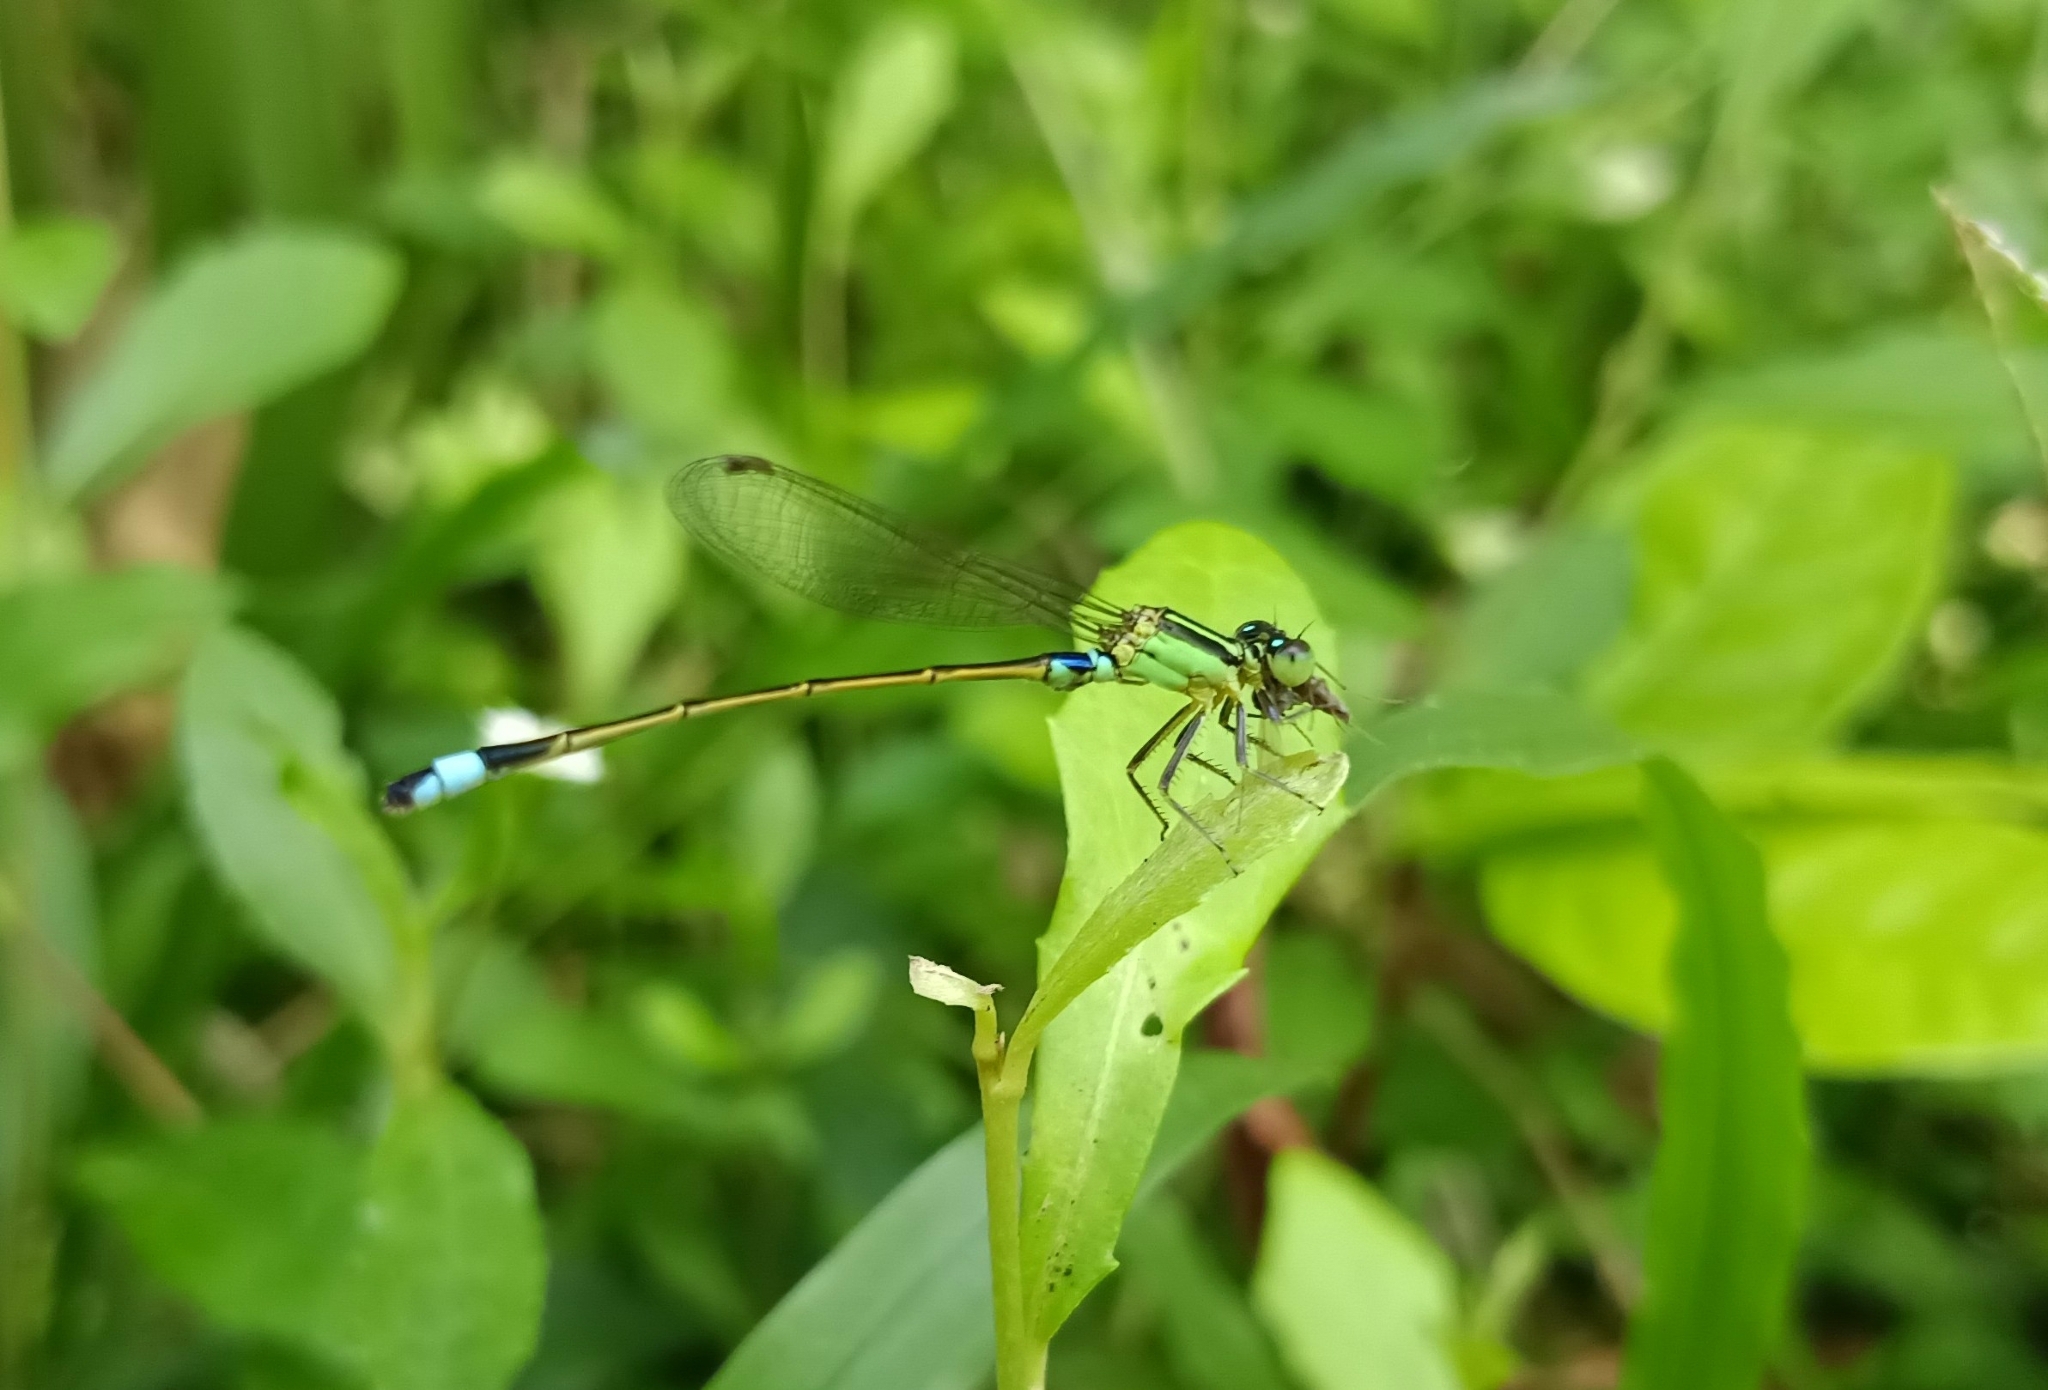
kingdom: Animalia
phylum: Arthropoda
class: Insecta
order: Odonata
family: Coenagrionidae
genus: Ischnura
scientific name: Ischnura senegalensis
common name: Tropical bluetail
